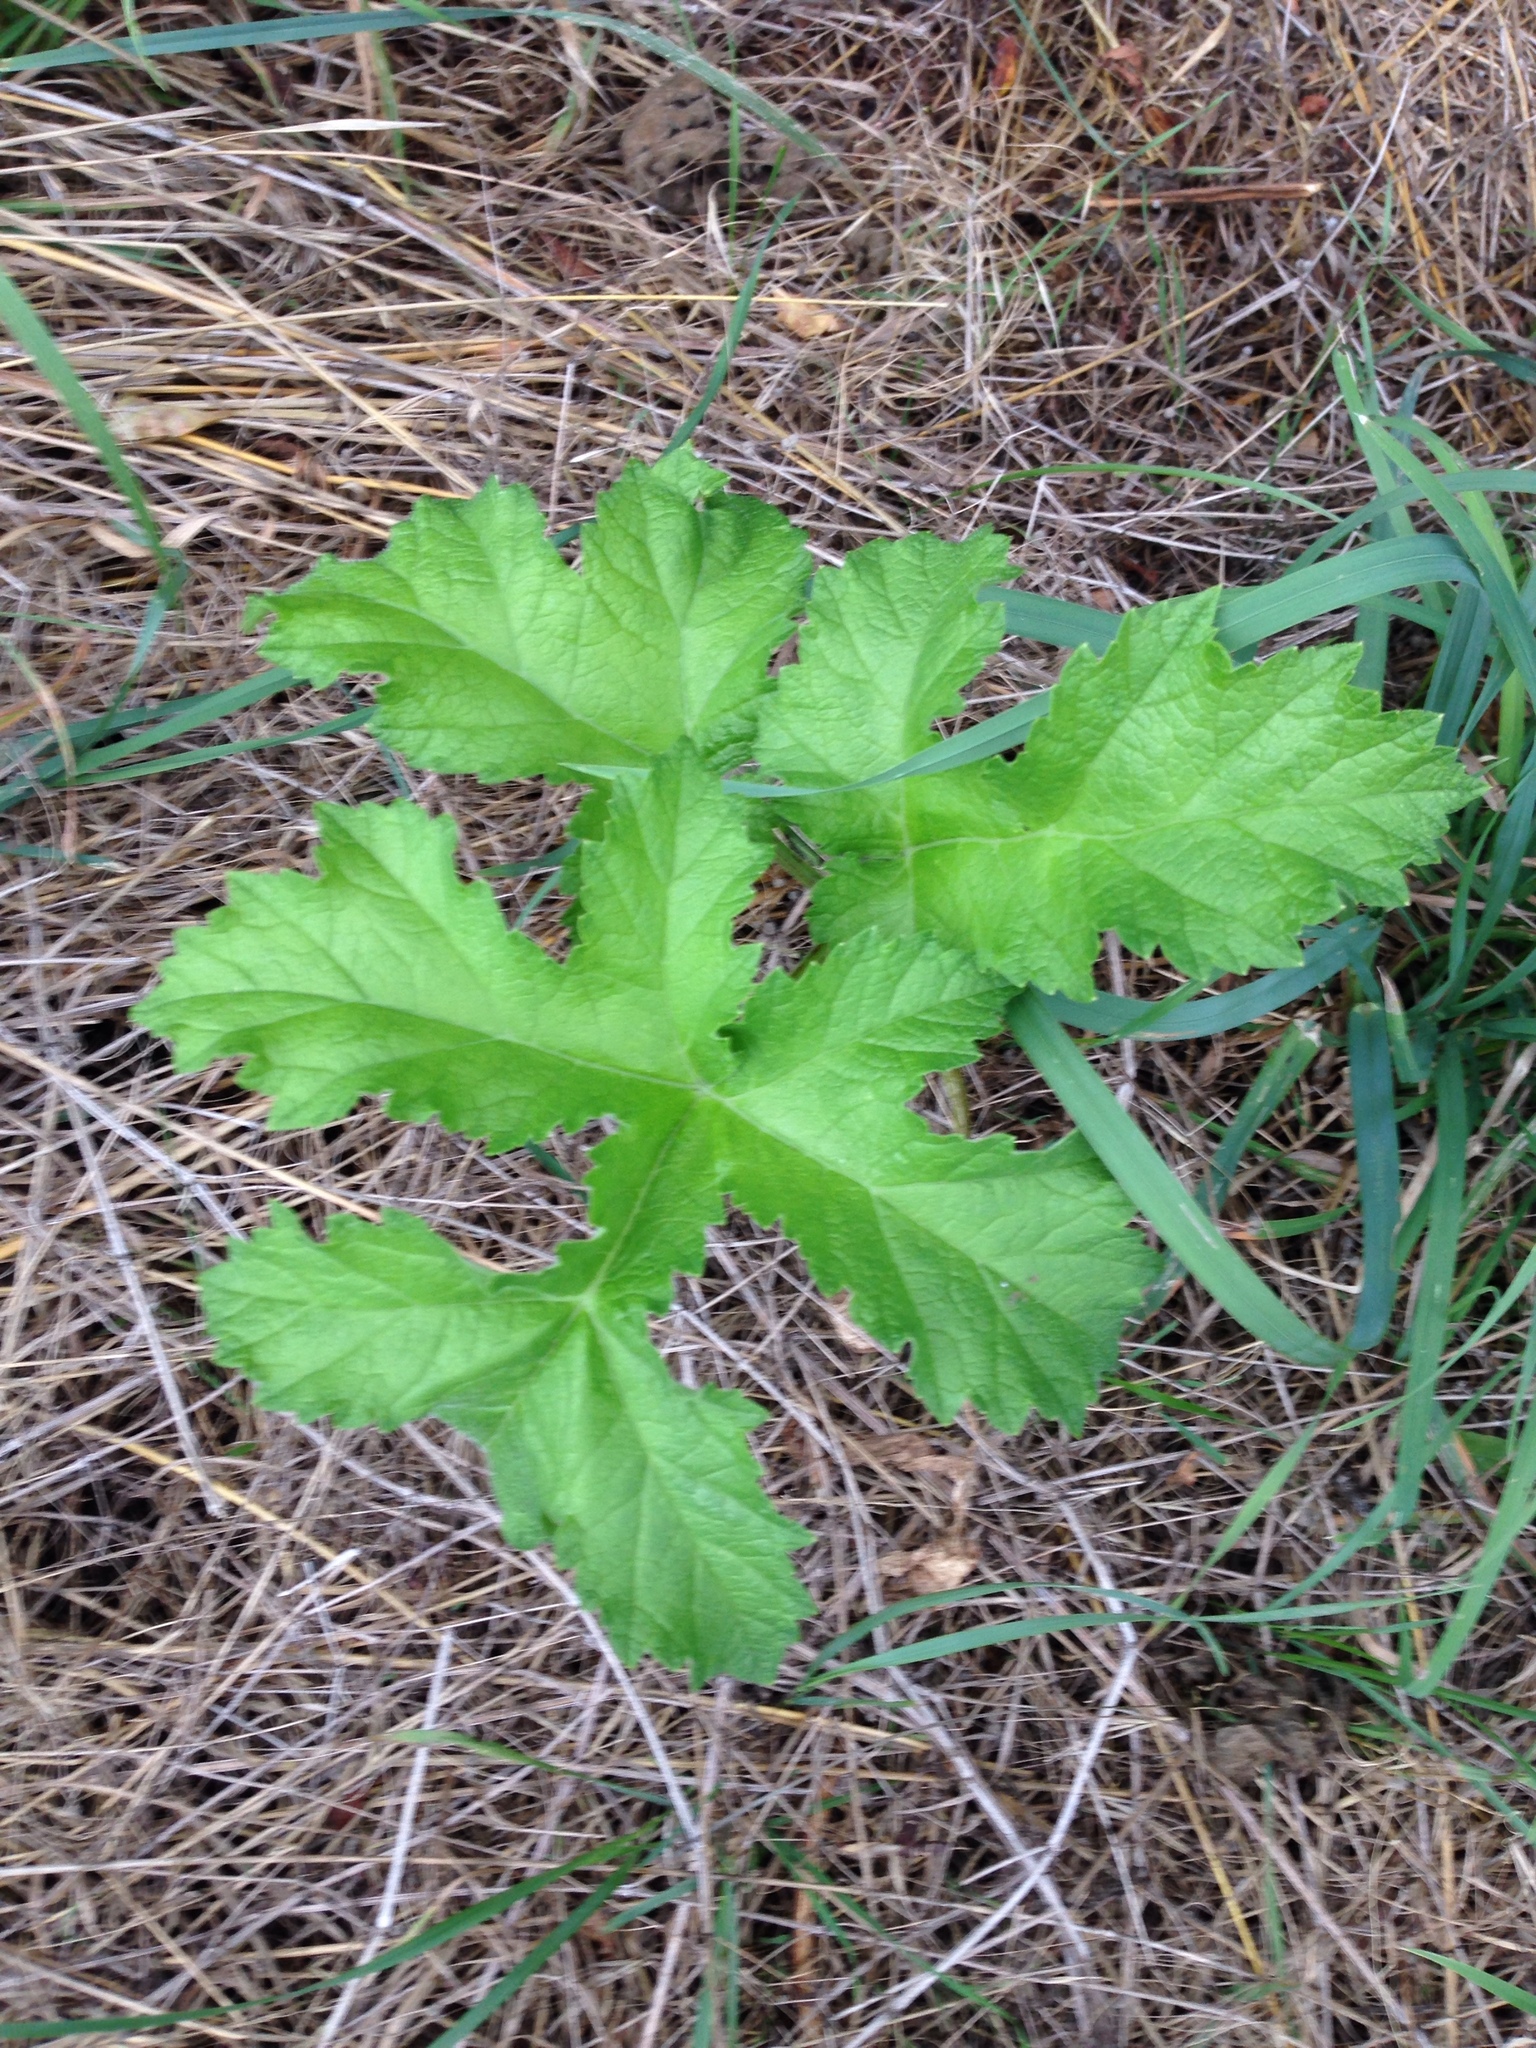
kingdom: Plantae
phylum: Tracheophyta
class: Magnoliopsida
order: Apiales
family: Apiaceae
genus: Heracleum
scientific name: Heracleum sphondylium
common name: Hogweed
